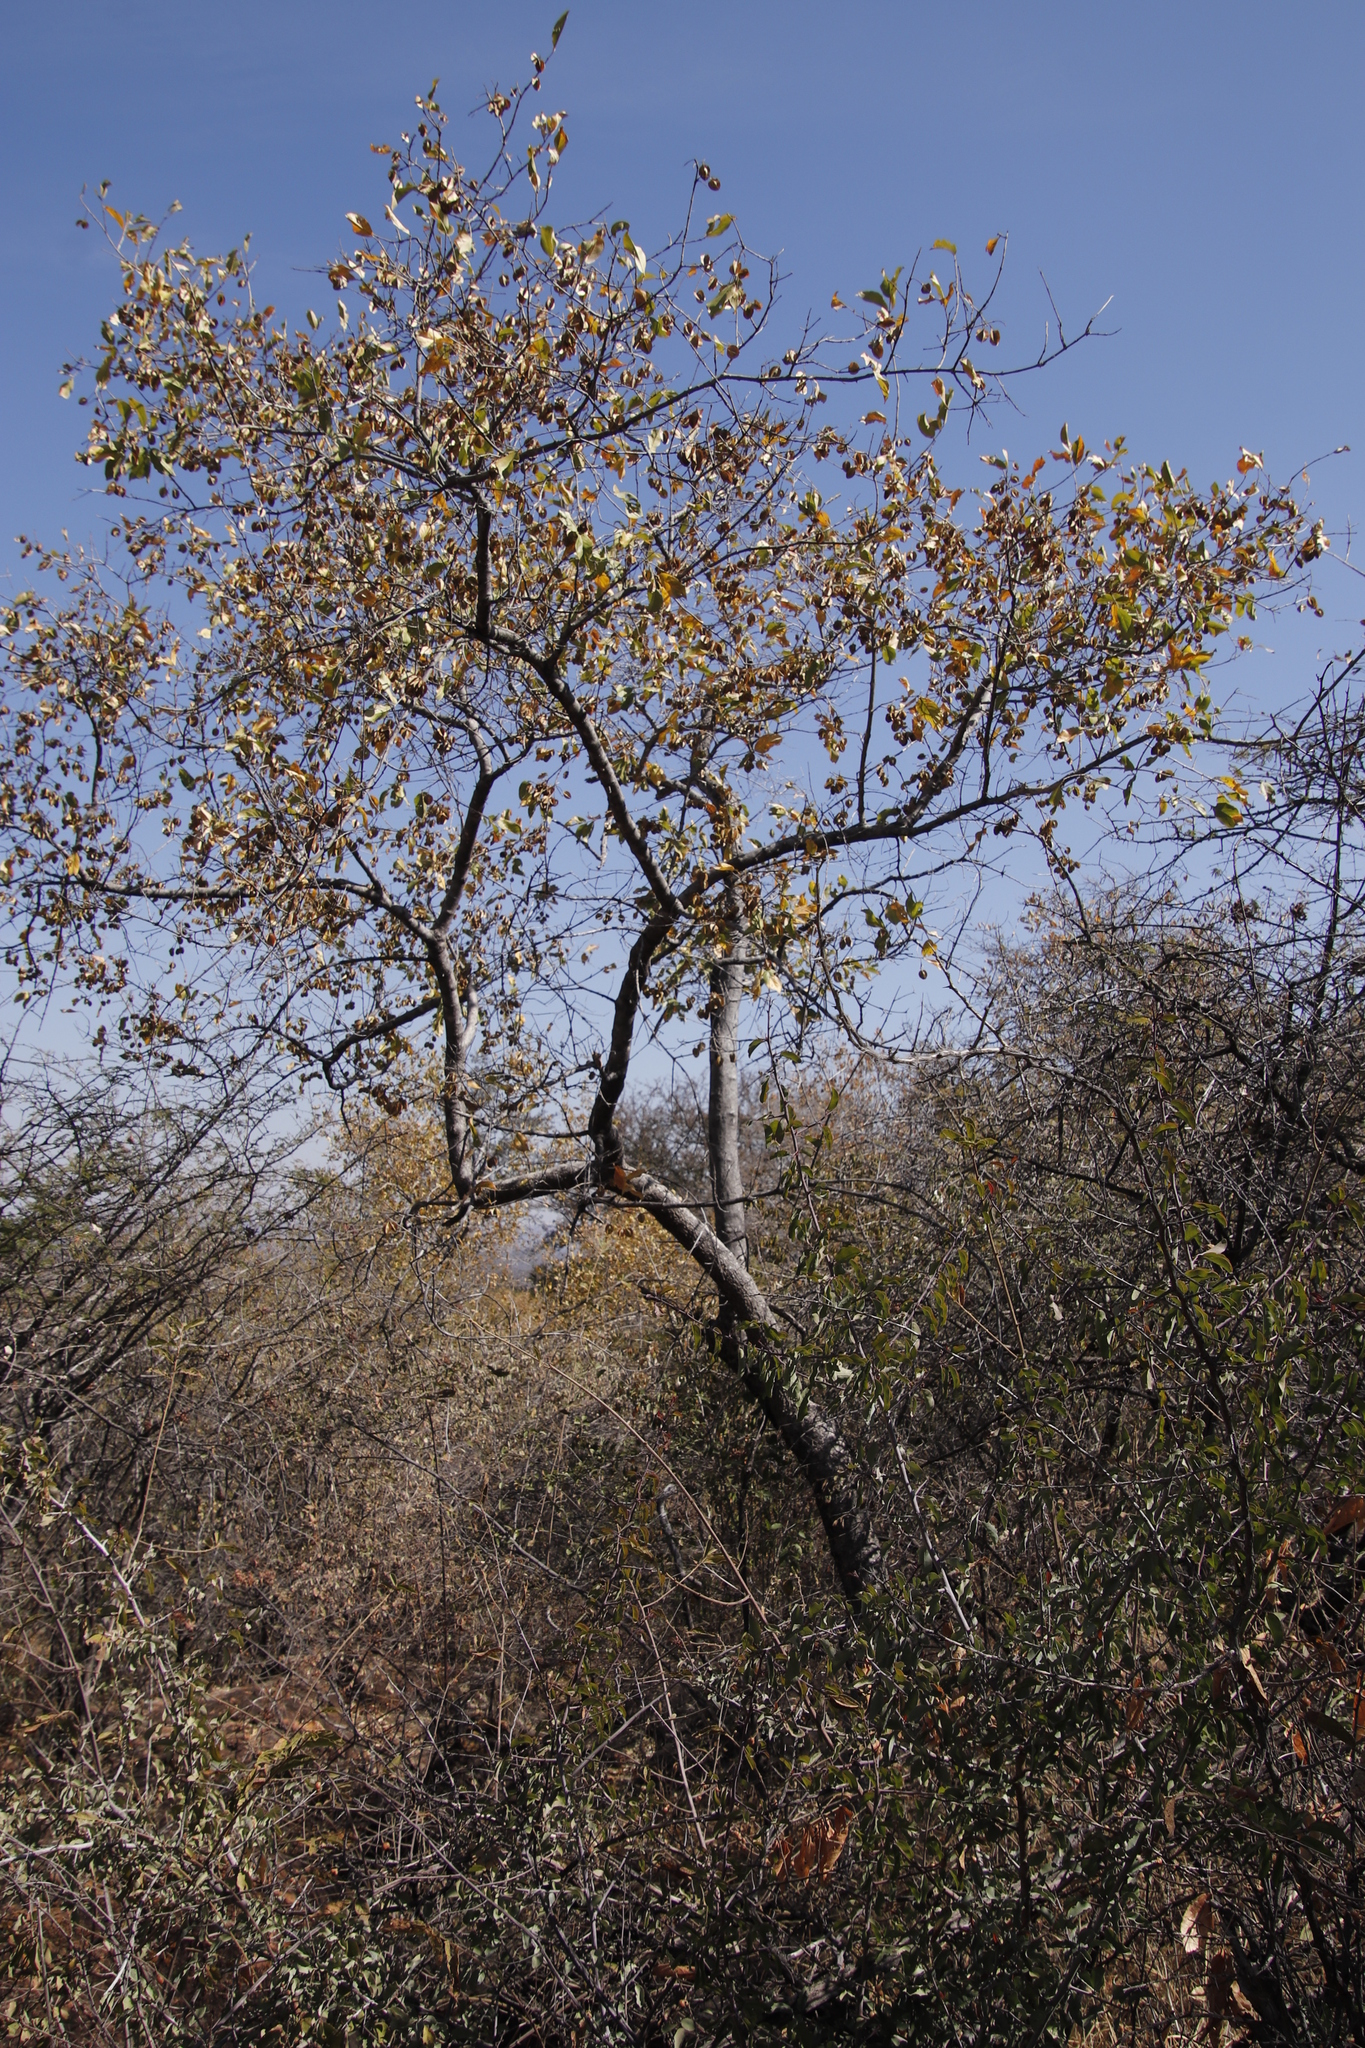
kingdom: Plantae
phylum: Tracheophyta
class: Magnoliopsida
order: Myrtales
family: Combretaceae
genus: Combretum
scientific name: Combretum apiculatum
